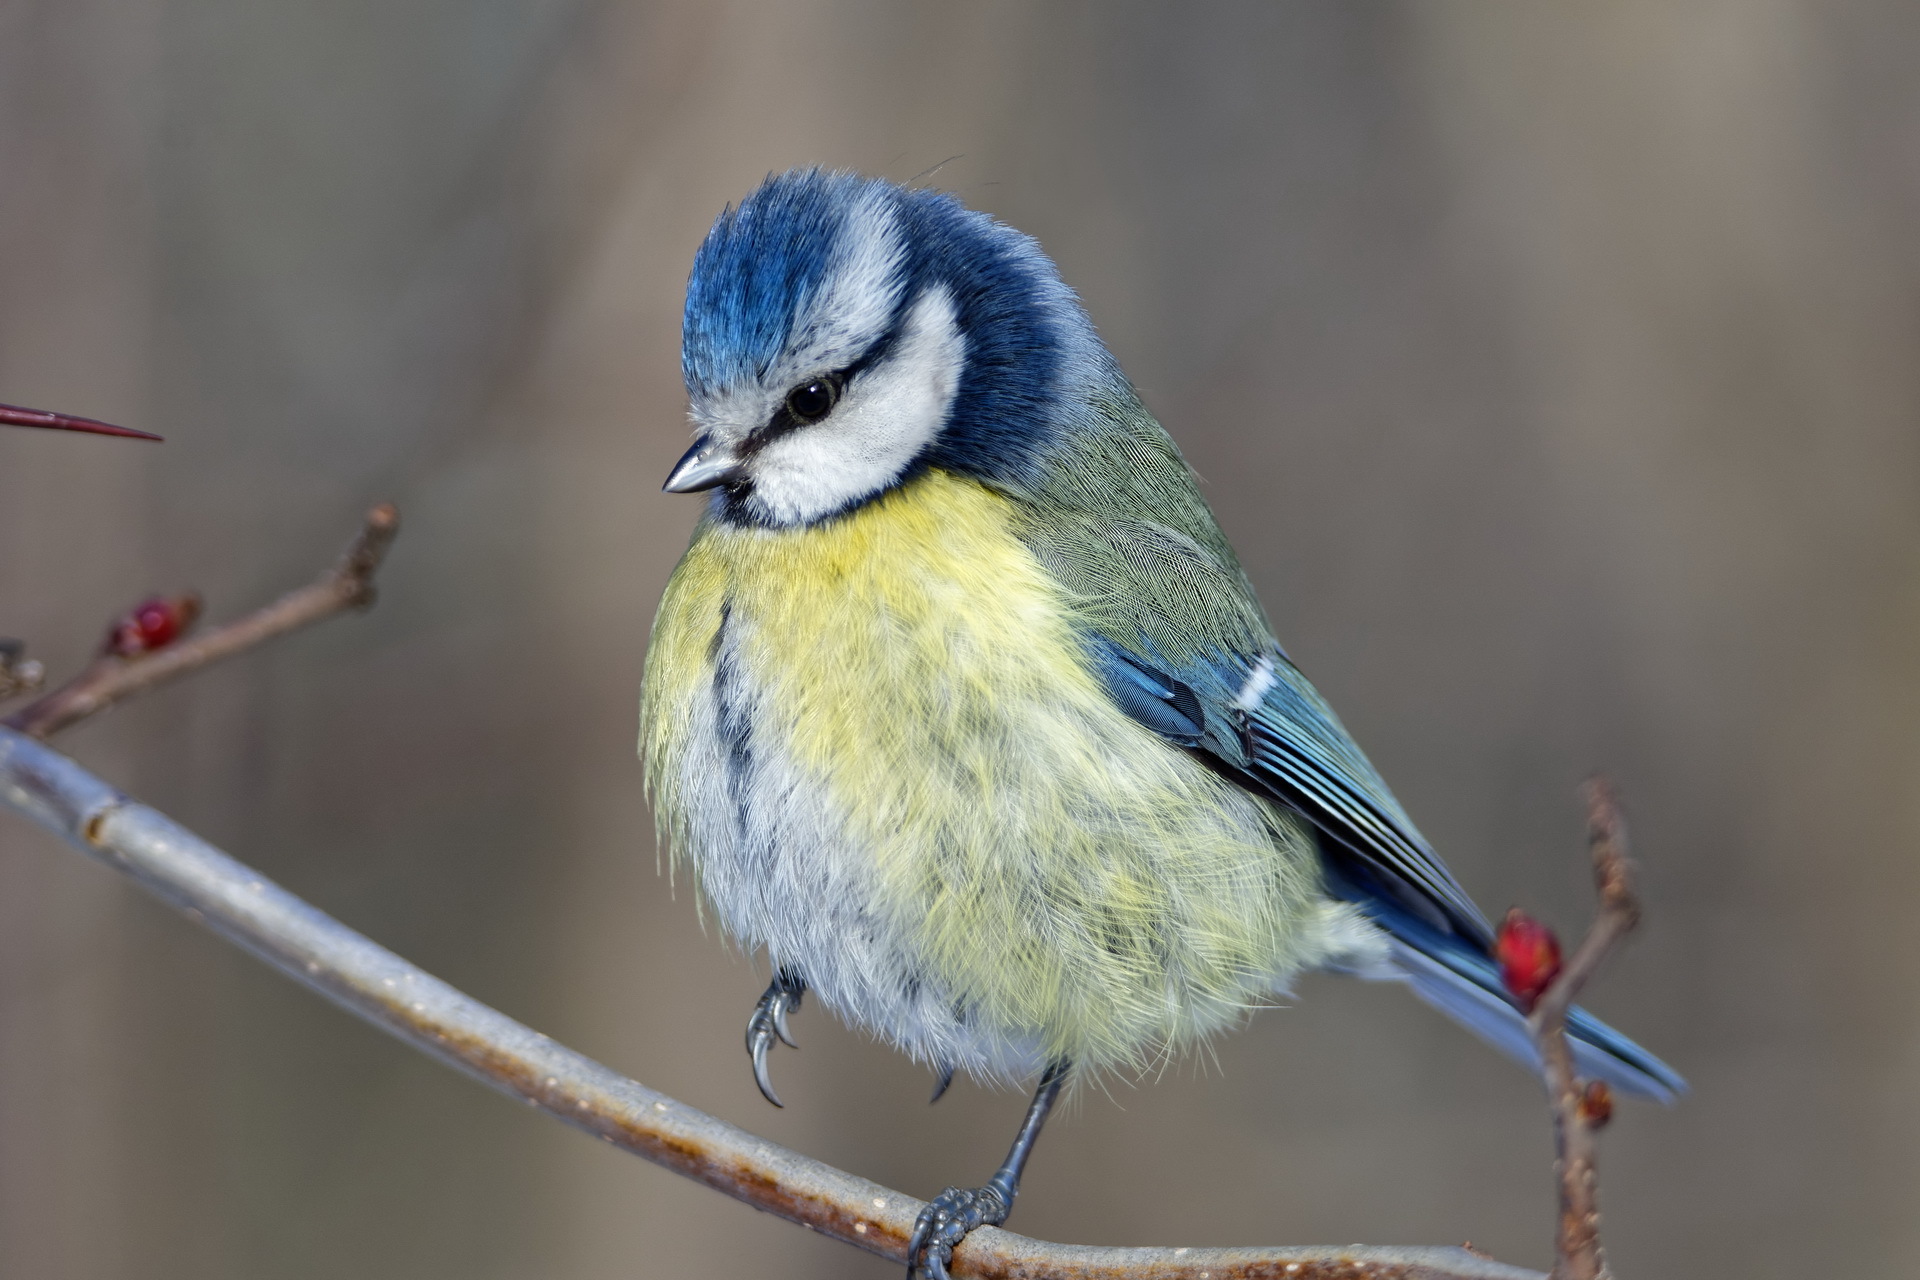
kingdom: Animalia
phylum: Chordata
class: Aves
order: Passeriformes
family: Paridae
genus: Cyanistes
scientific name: Cyanistes caeruleus
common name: Eurasian blue tit
